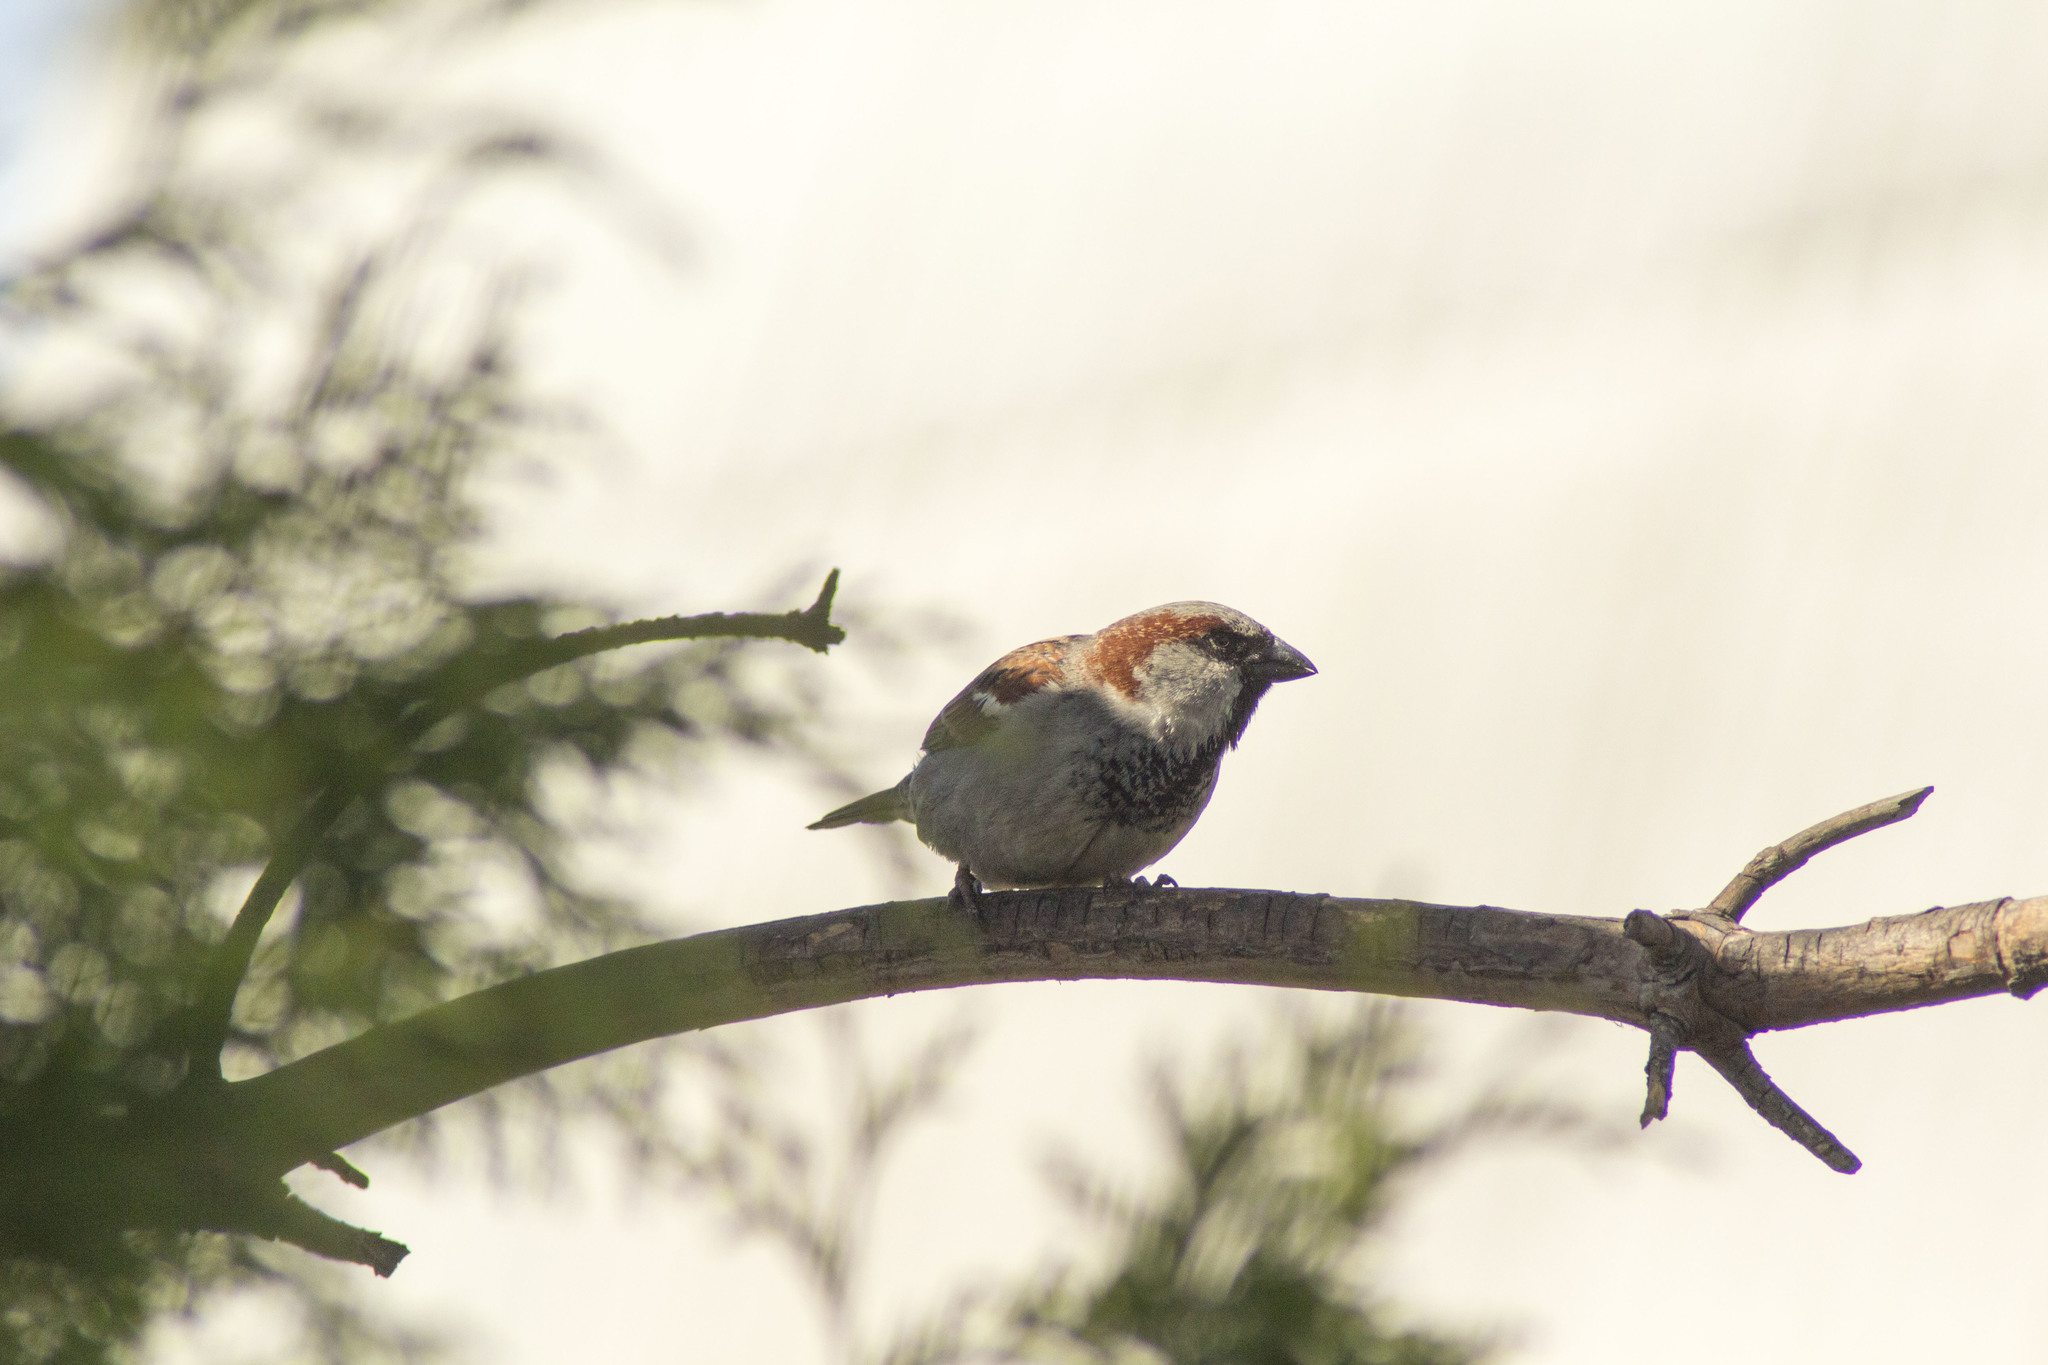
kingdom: Animalia
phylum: Chordata
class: Aves
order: Passeriformes
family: Passeridae
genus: Passer
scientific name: Passer domesticus
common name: House sparrow
